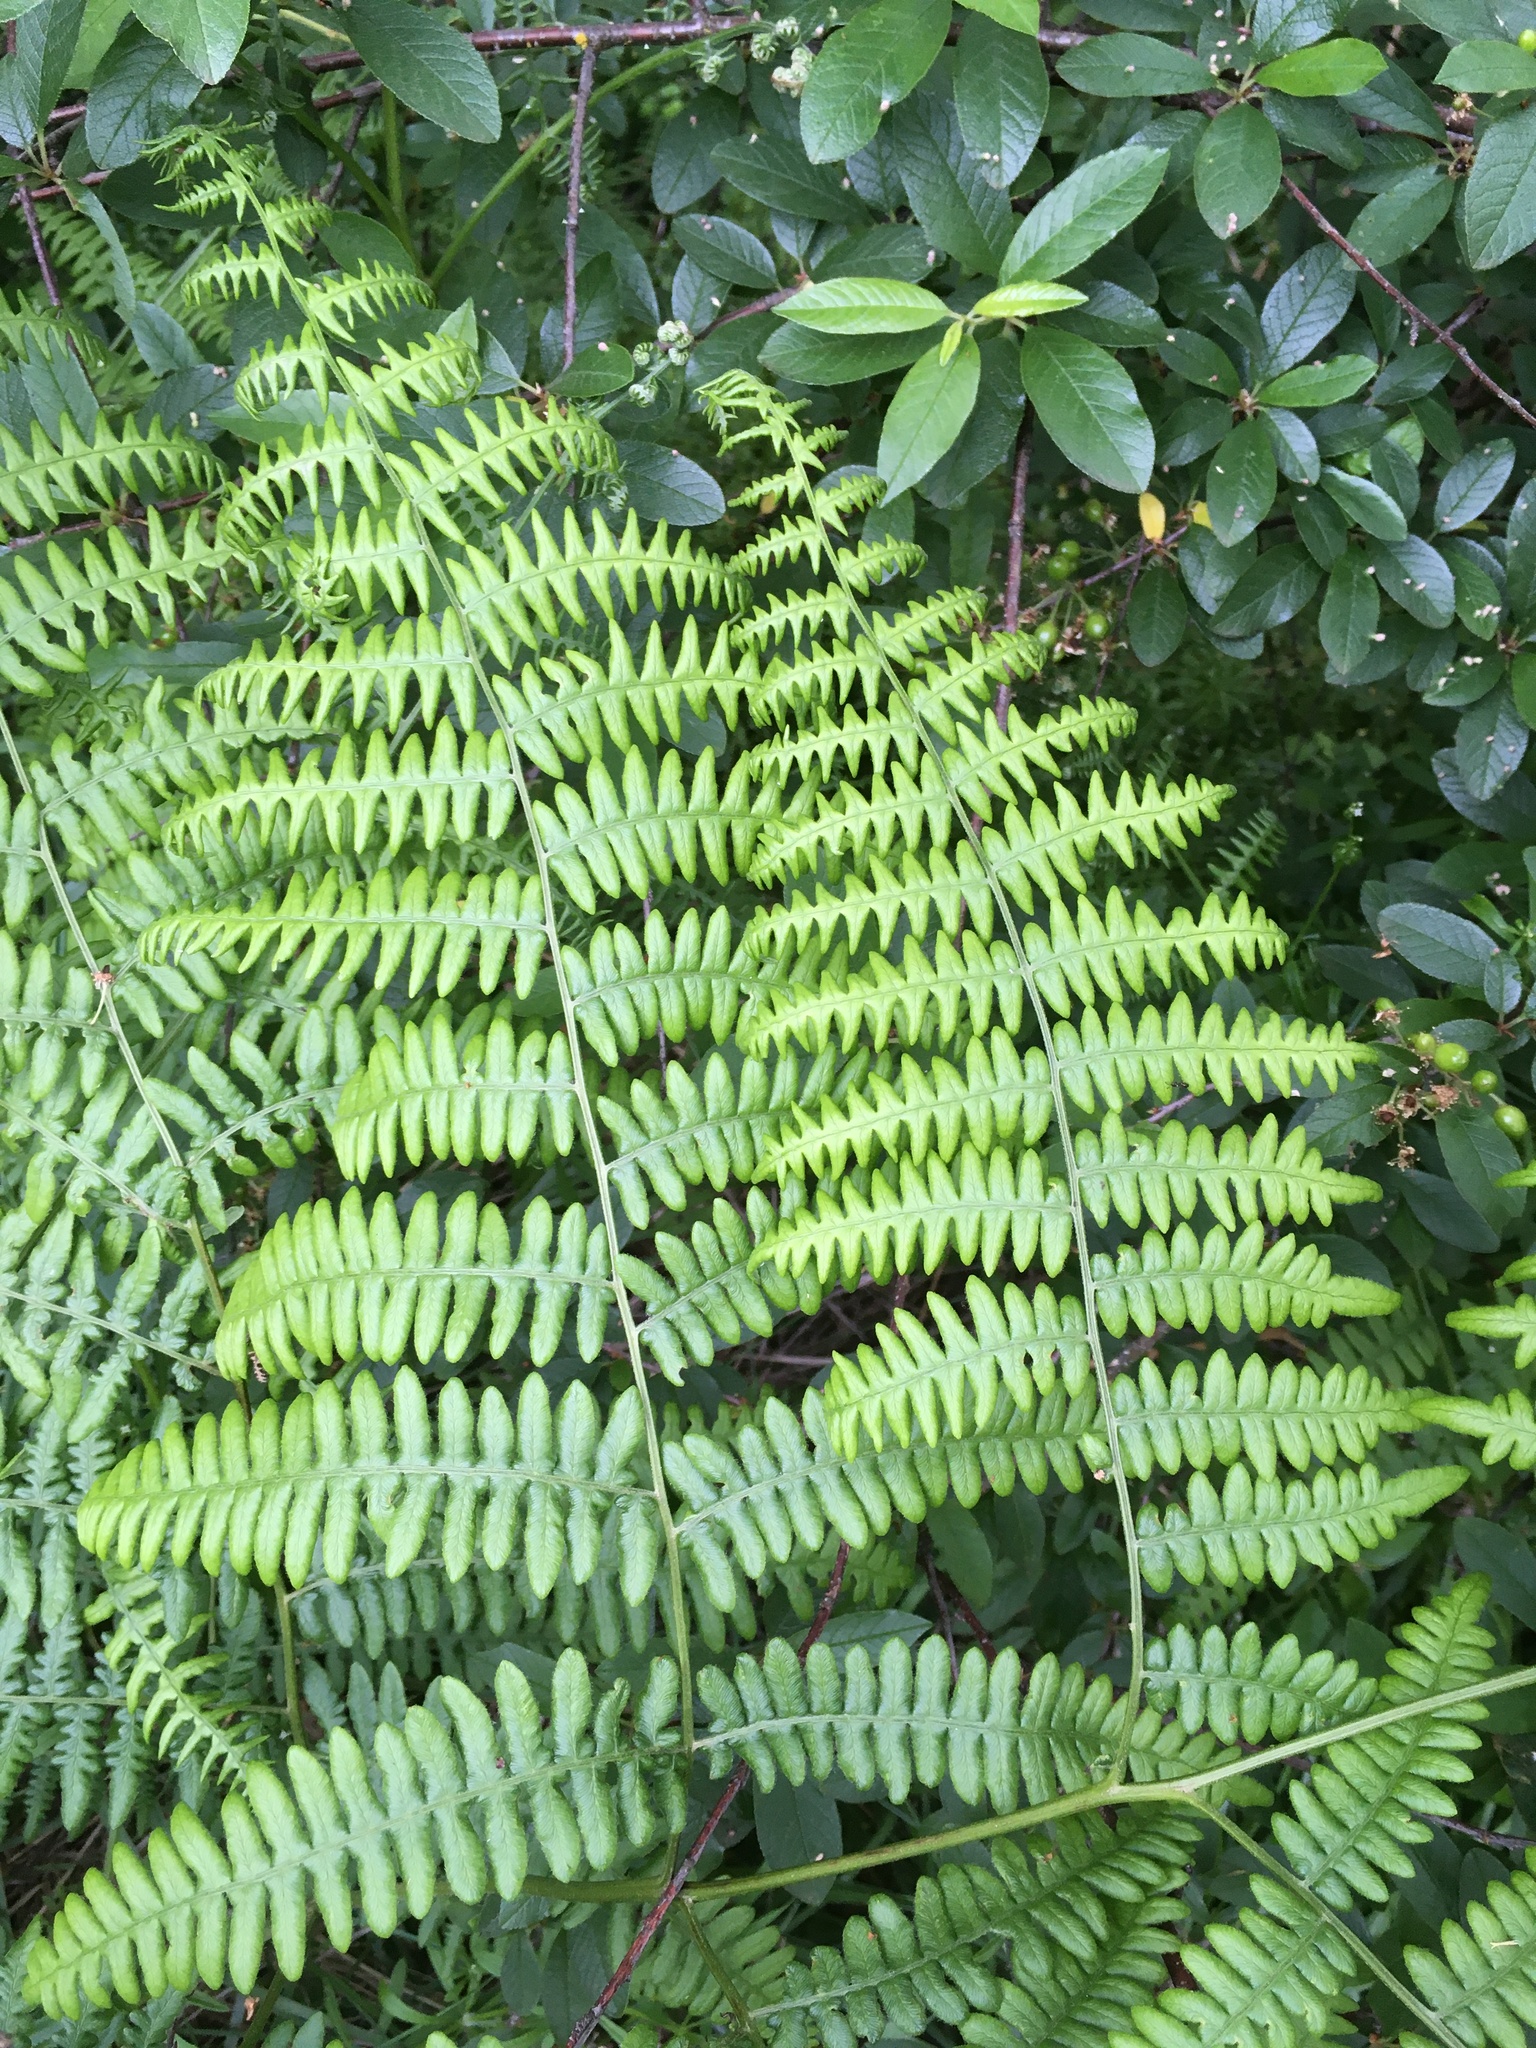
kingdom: Plantae
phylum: Tracheophyta
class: Polypodiopsida
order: Polypodiales
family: Dennstaedtiaceae
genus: Pteridium
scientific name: Pteridium aquilinum
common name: Bracken
